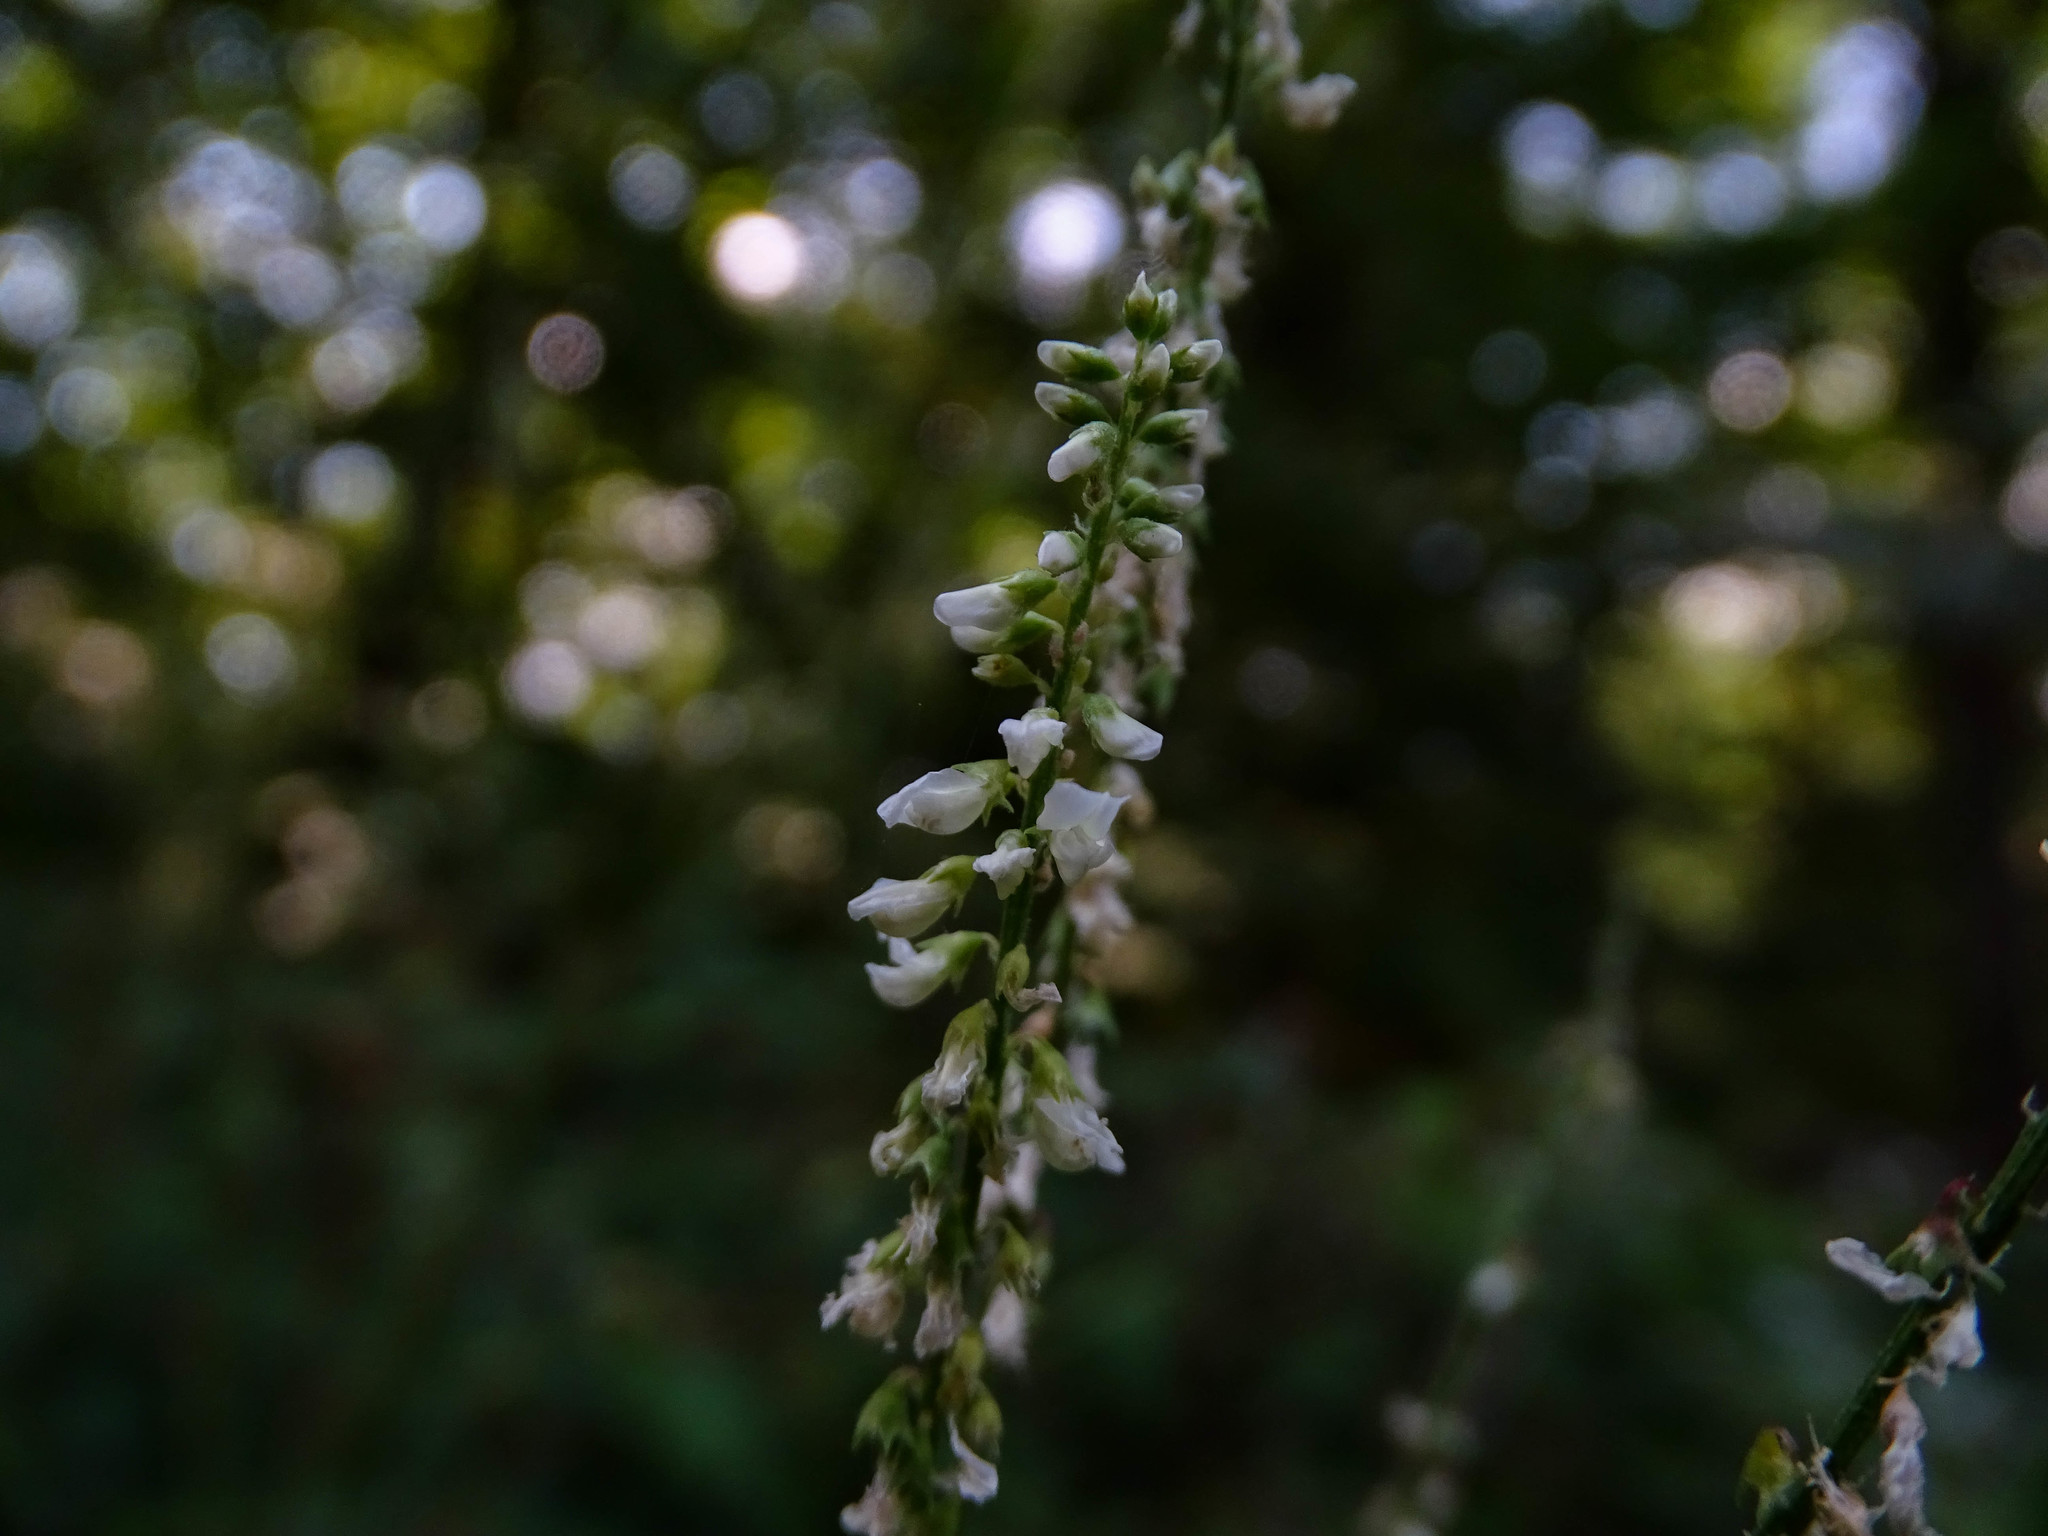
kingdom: Plantae
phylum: Tracheophyta
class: Magnoliopsida
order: Fabales
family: Fabaceae
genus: Melilotus
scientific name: Melilotus albus
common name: White melilot
